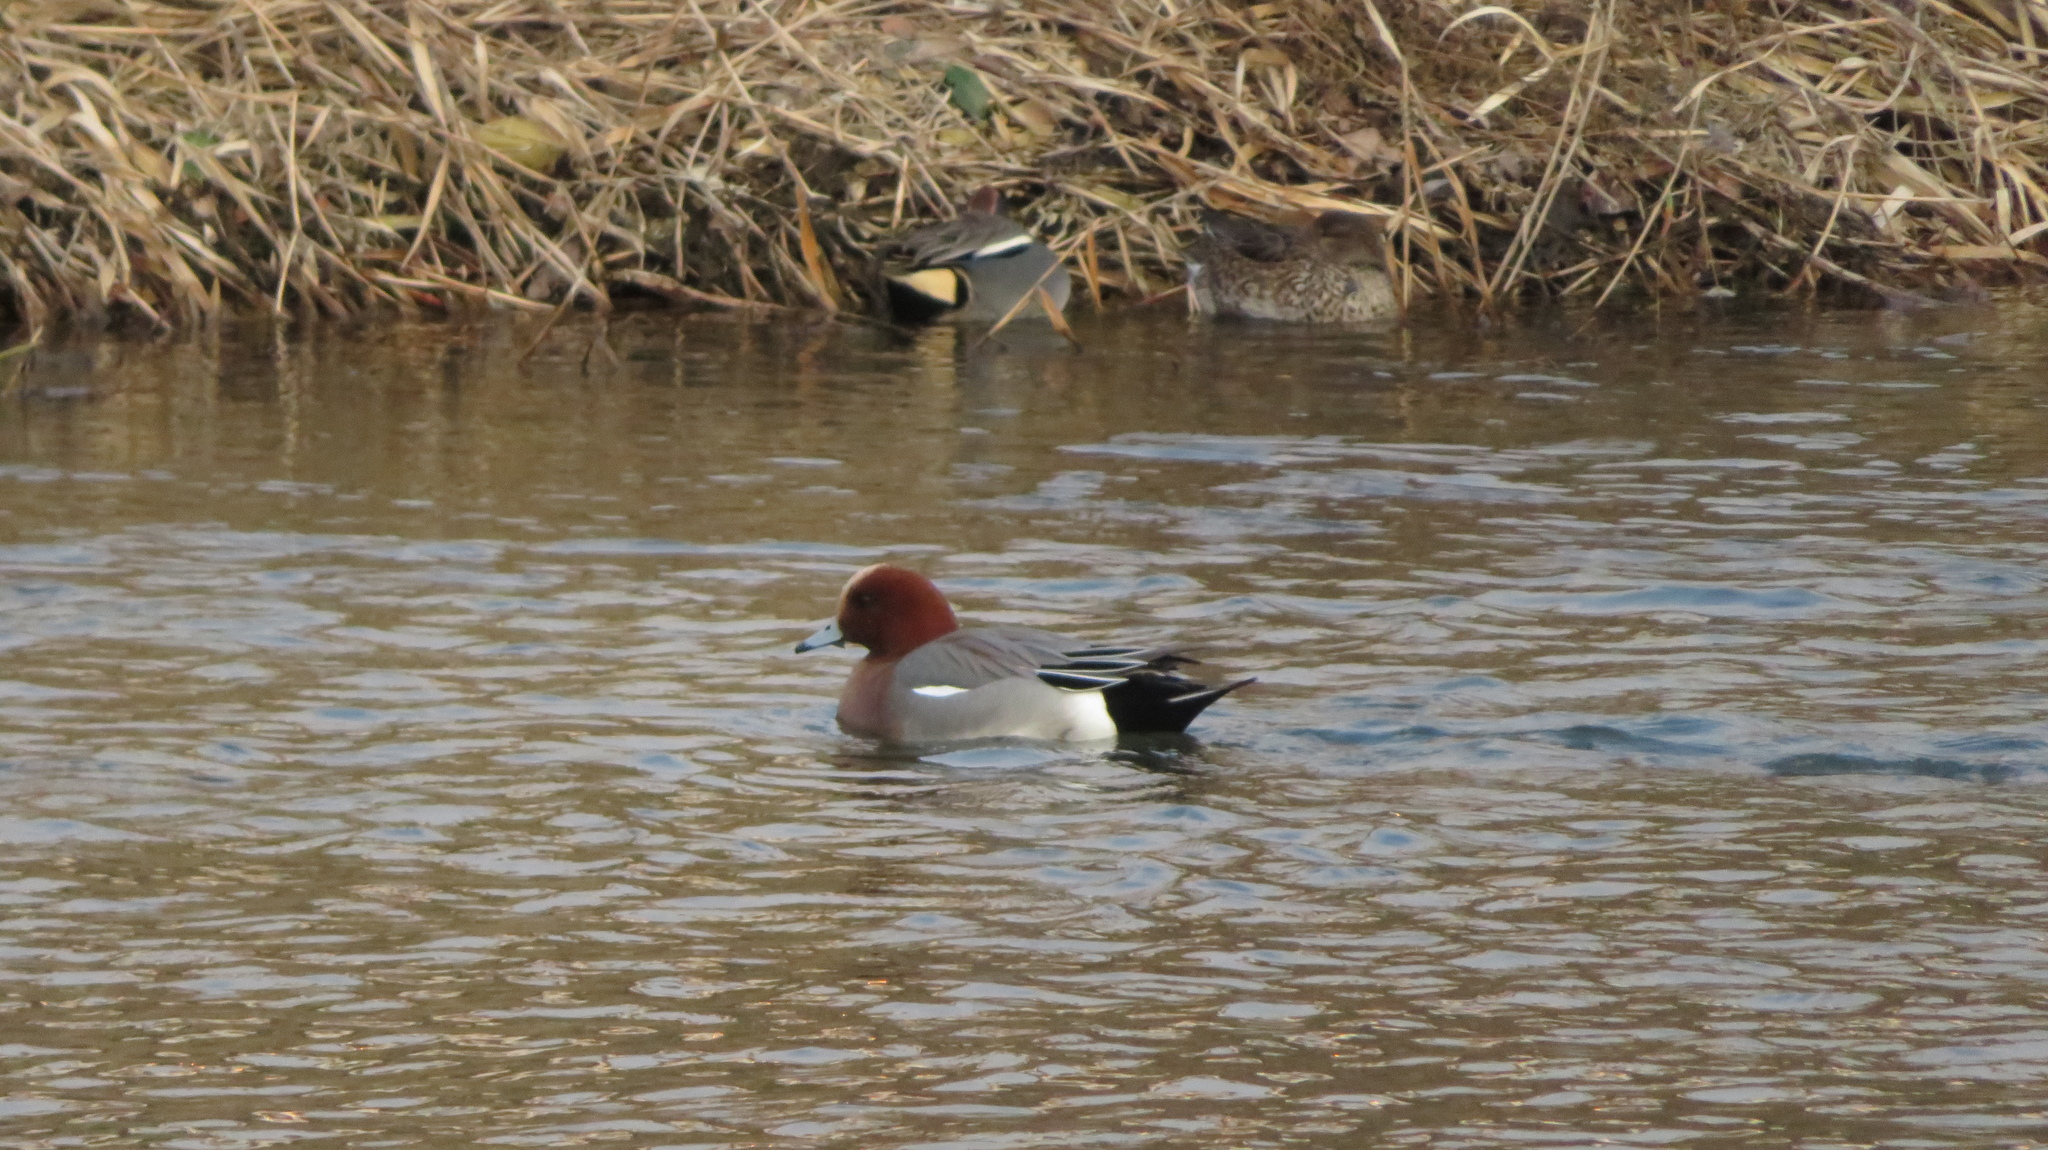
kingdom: Animalia
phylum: Chordata
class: Aves
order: Anseriformes
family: Anatidae
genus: Mareca
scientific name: Mareca penelope
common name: Eurasian wigeon
